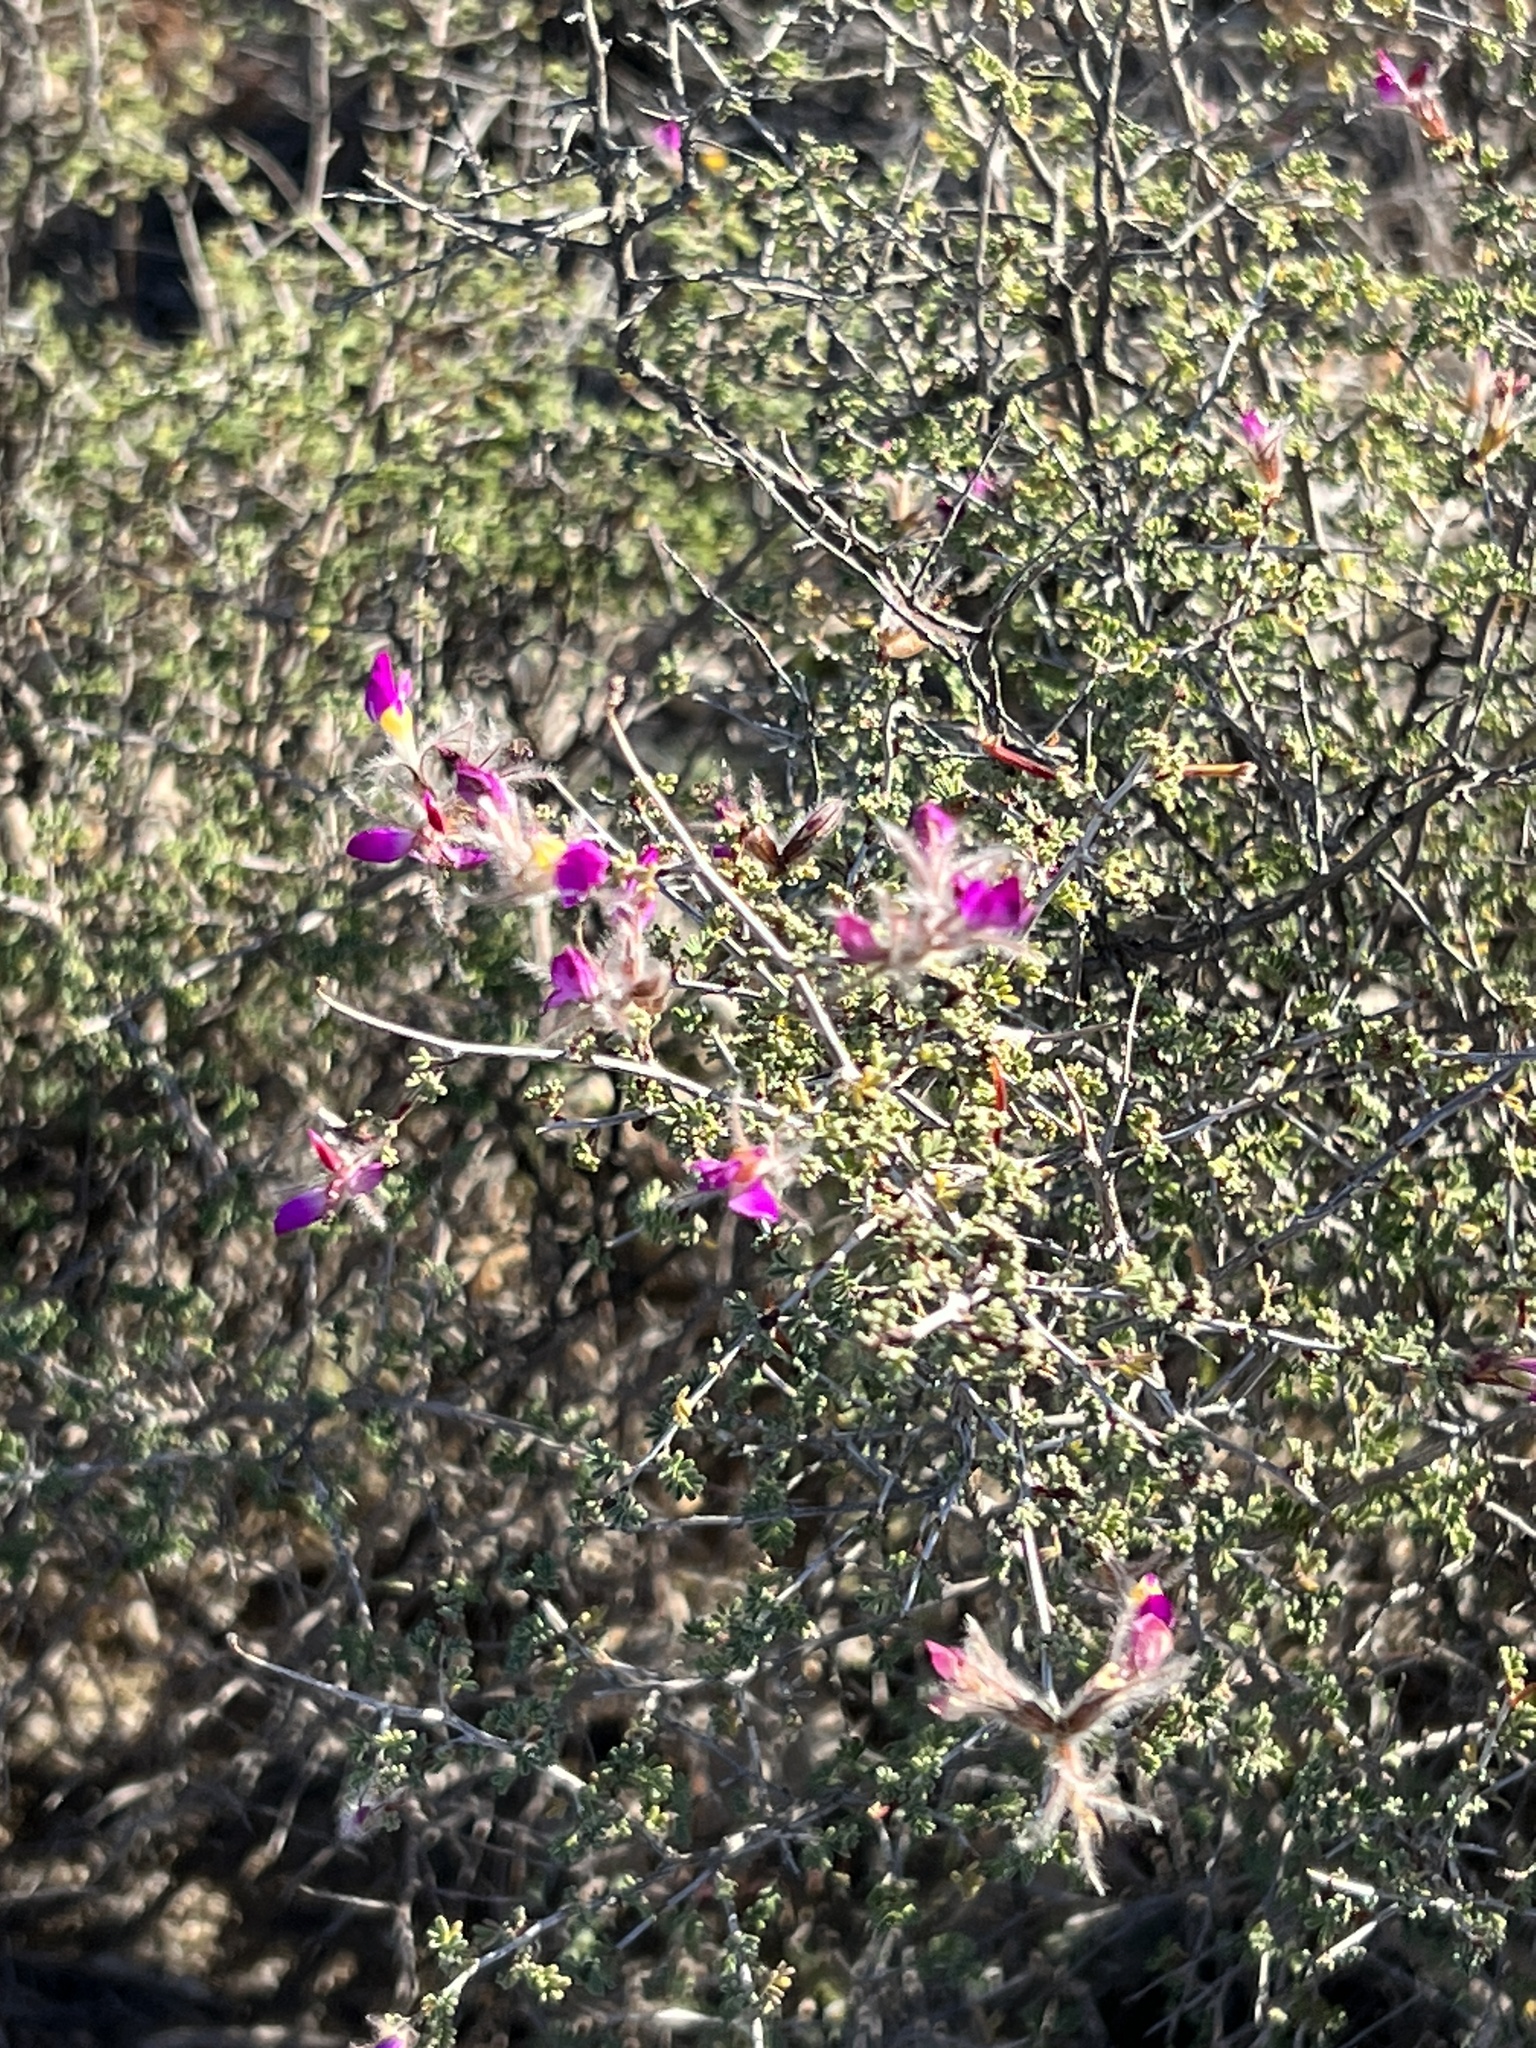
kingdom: Plantae
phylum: Tracheophyta
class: Magnoliopsida
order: Fabales
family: Fabaceae
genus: Dalea
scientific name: Dalea formosa
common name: Feather-plume dalea
